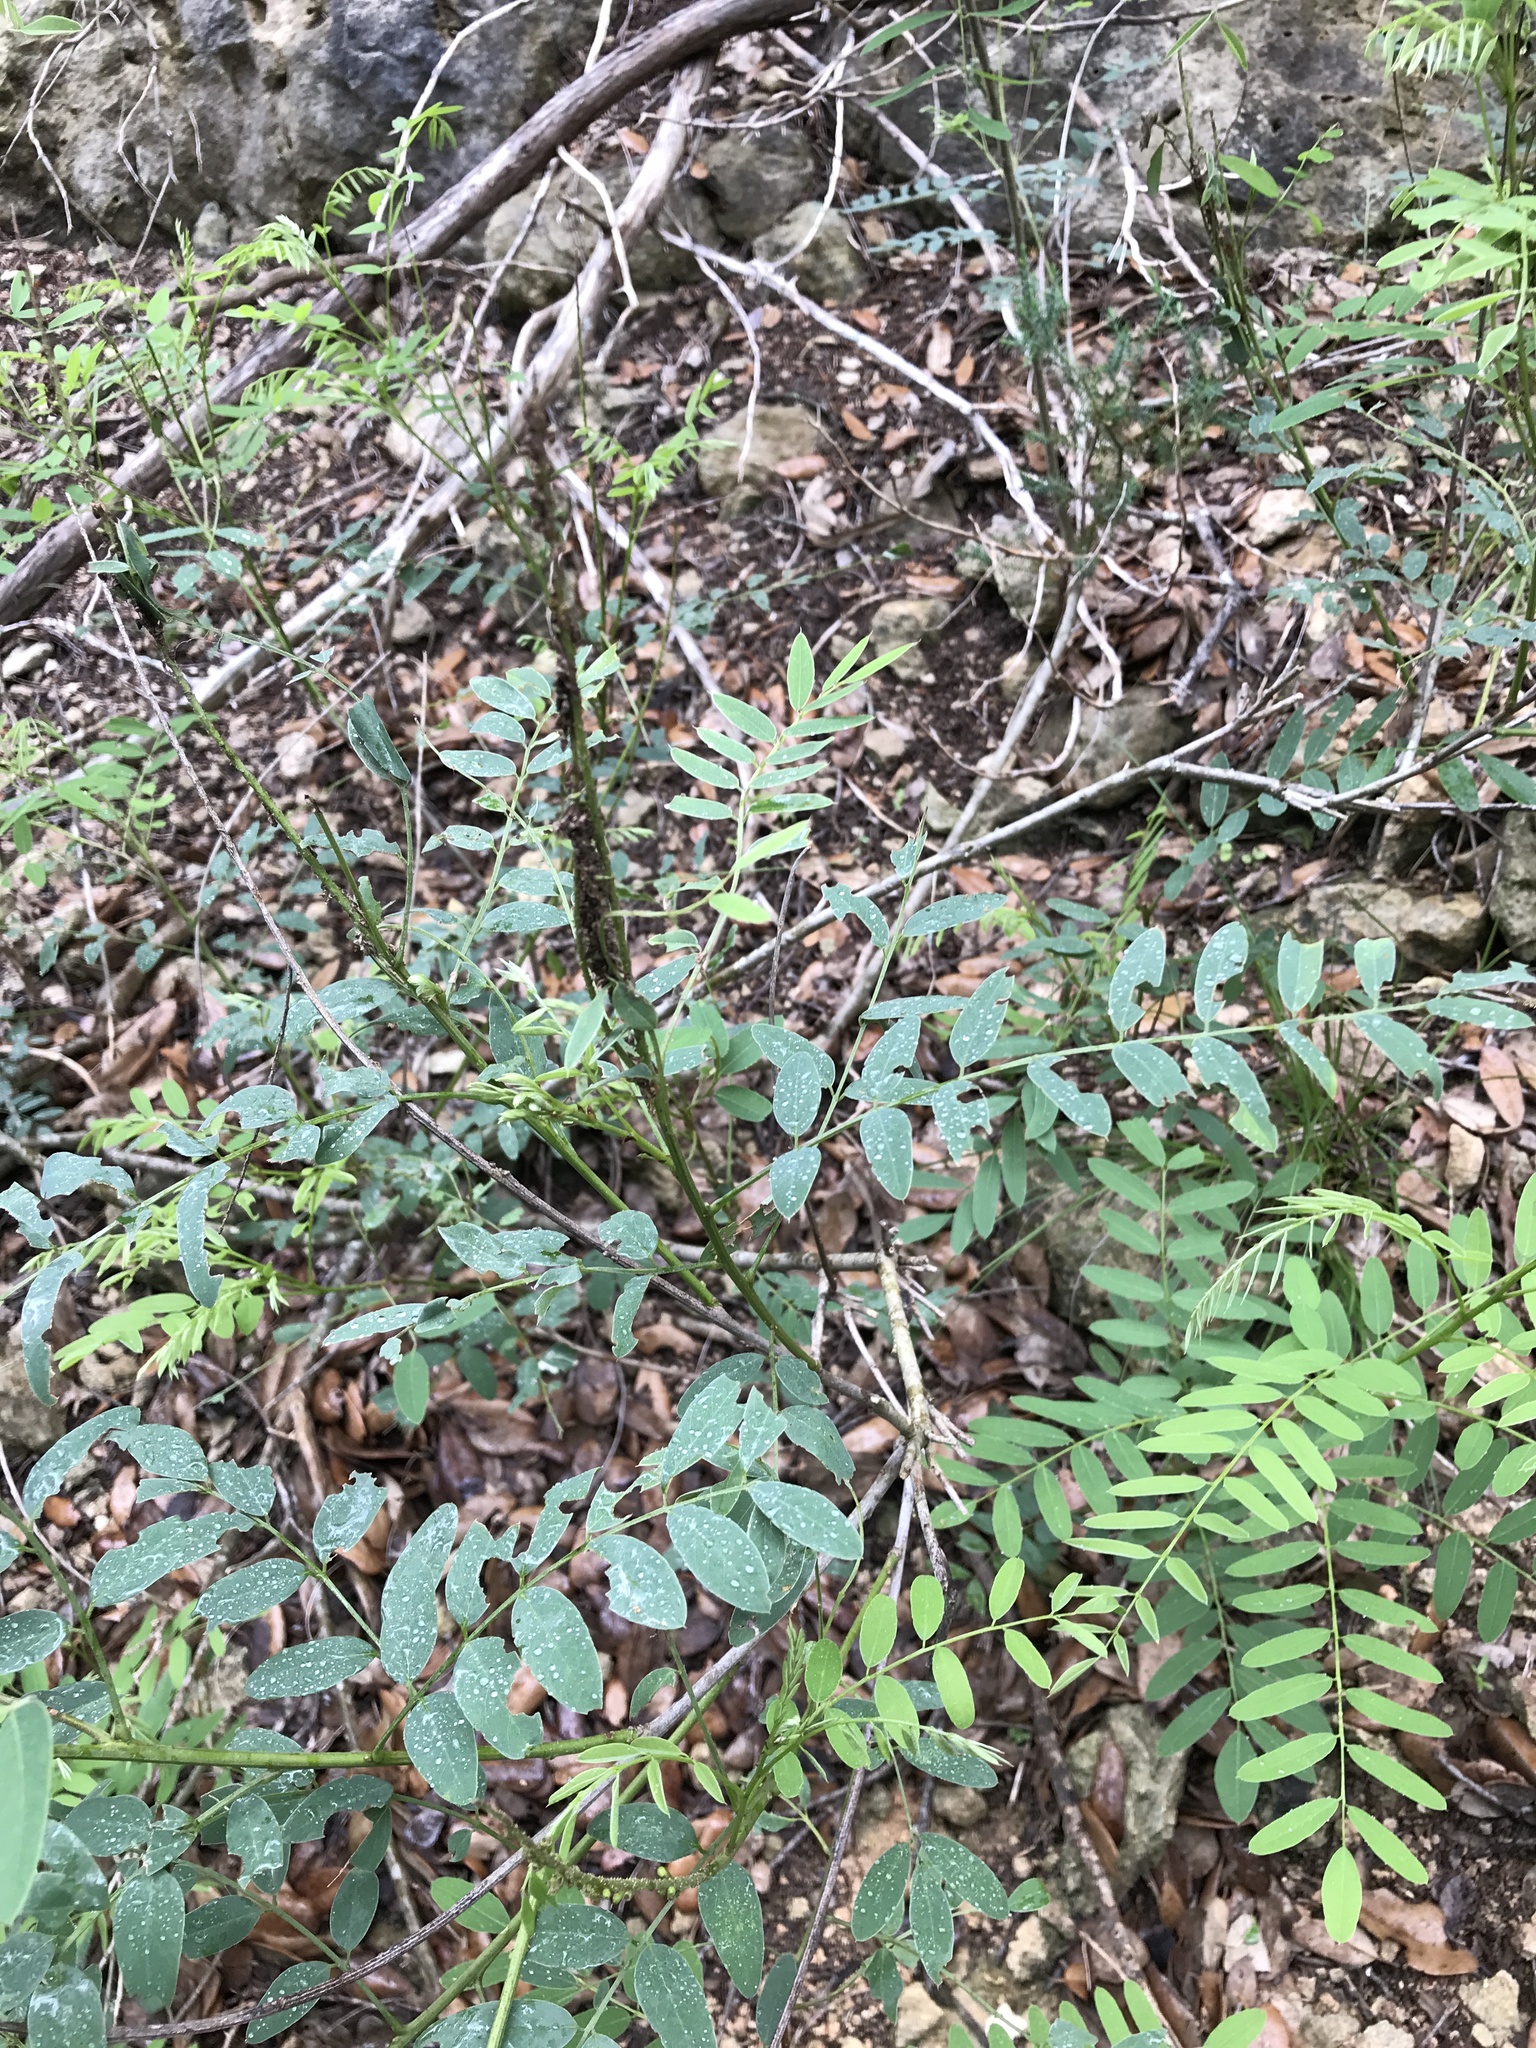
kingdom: Plantae
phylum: Tracheophyta
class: Magnoliopsida
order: Fabales
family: Fabaceae
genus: Amorpha
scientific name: Amorpha fruticosa
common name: False indigo
